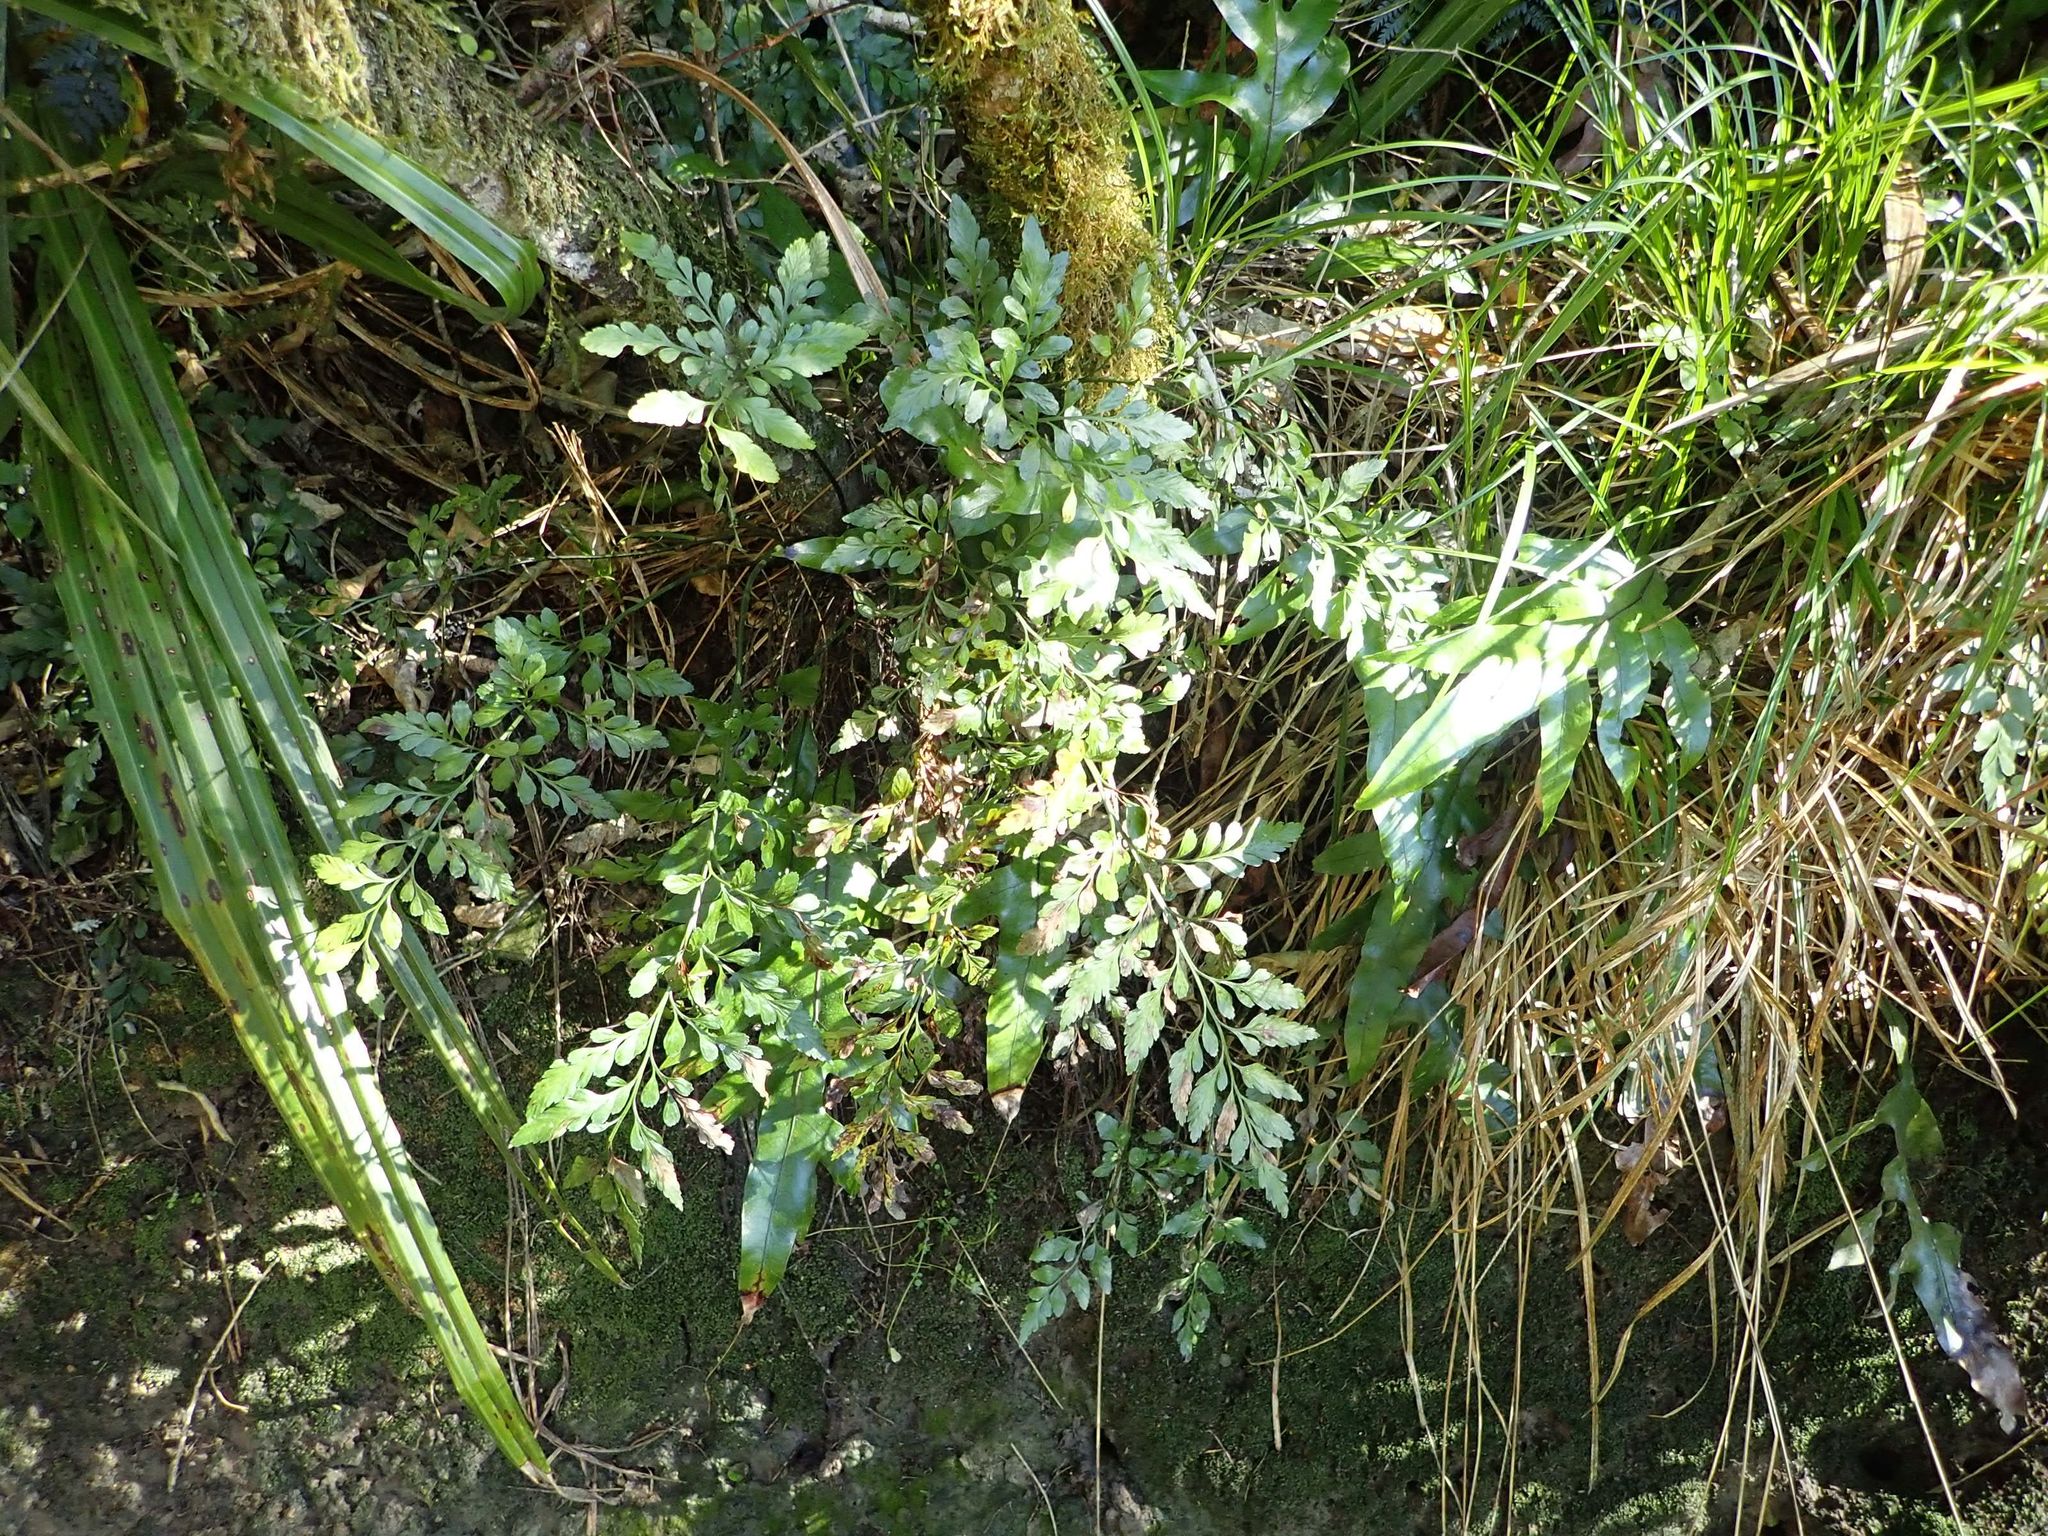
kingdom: Plantae
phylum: Tracheophyta
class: Polypodiopsida
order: Polypodiales
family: Aspleniaceae
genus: Asplenium
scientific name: Asplenium lyallii
